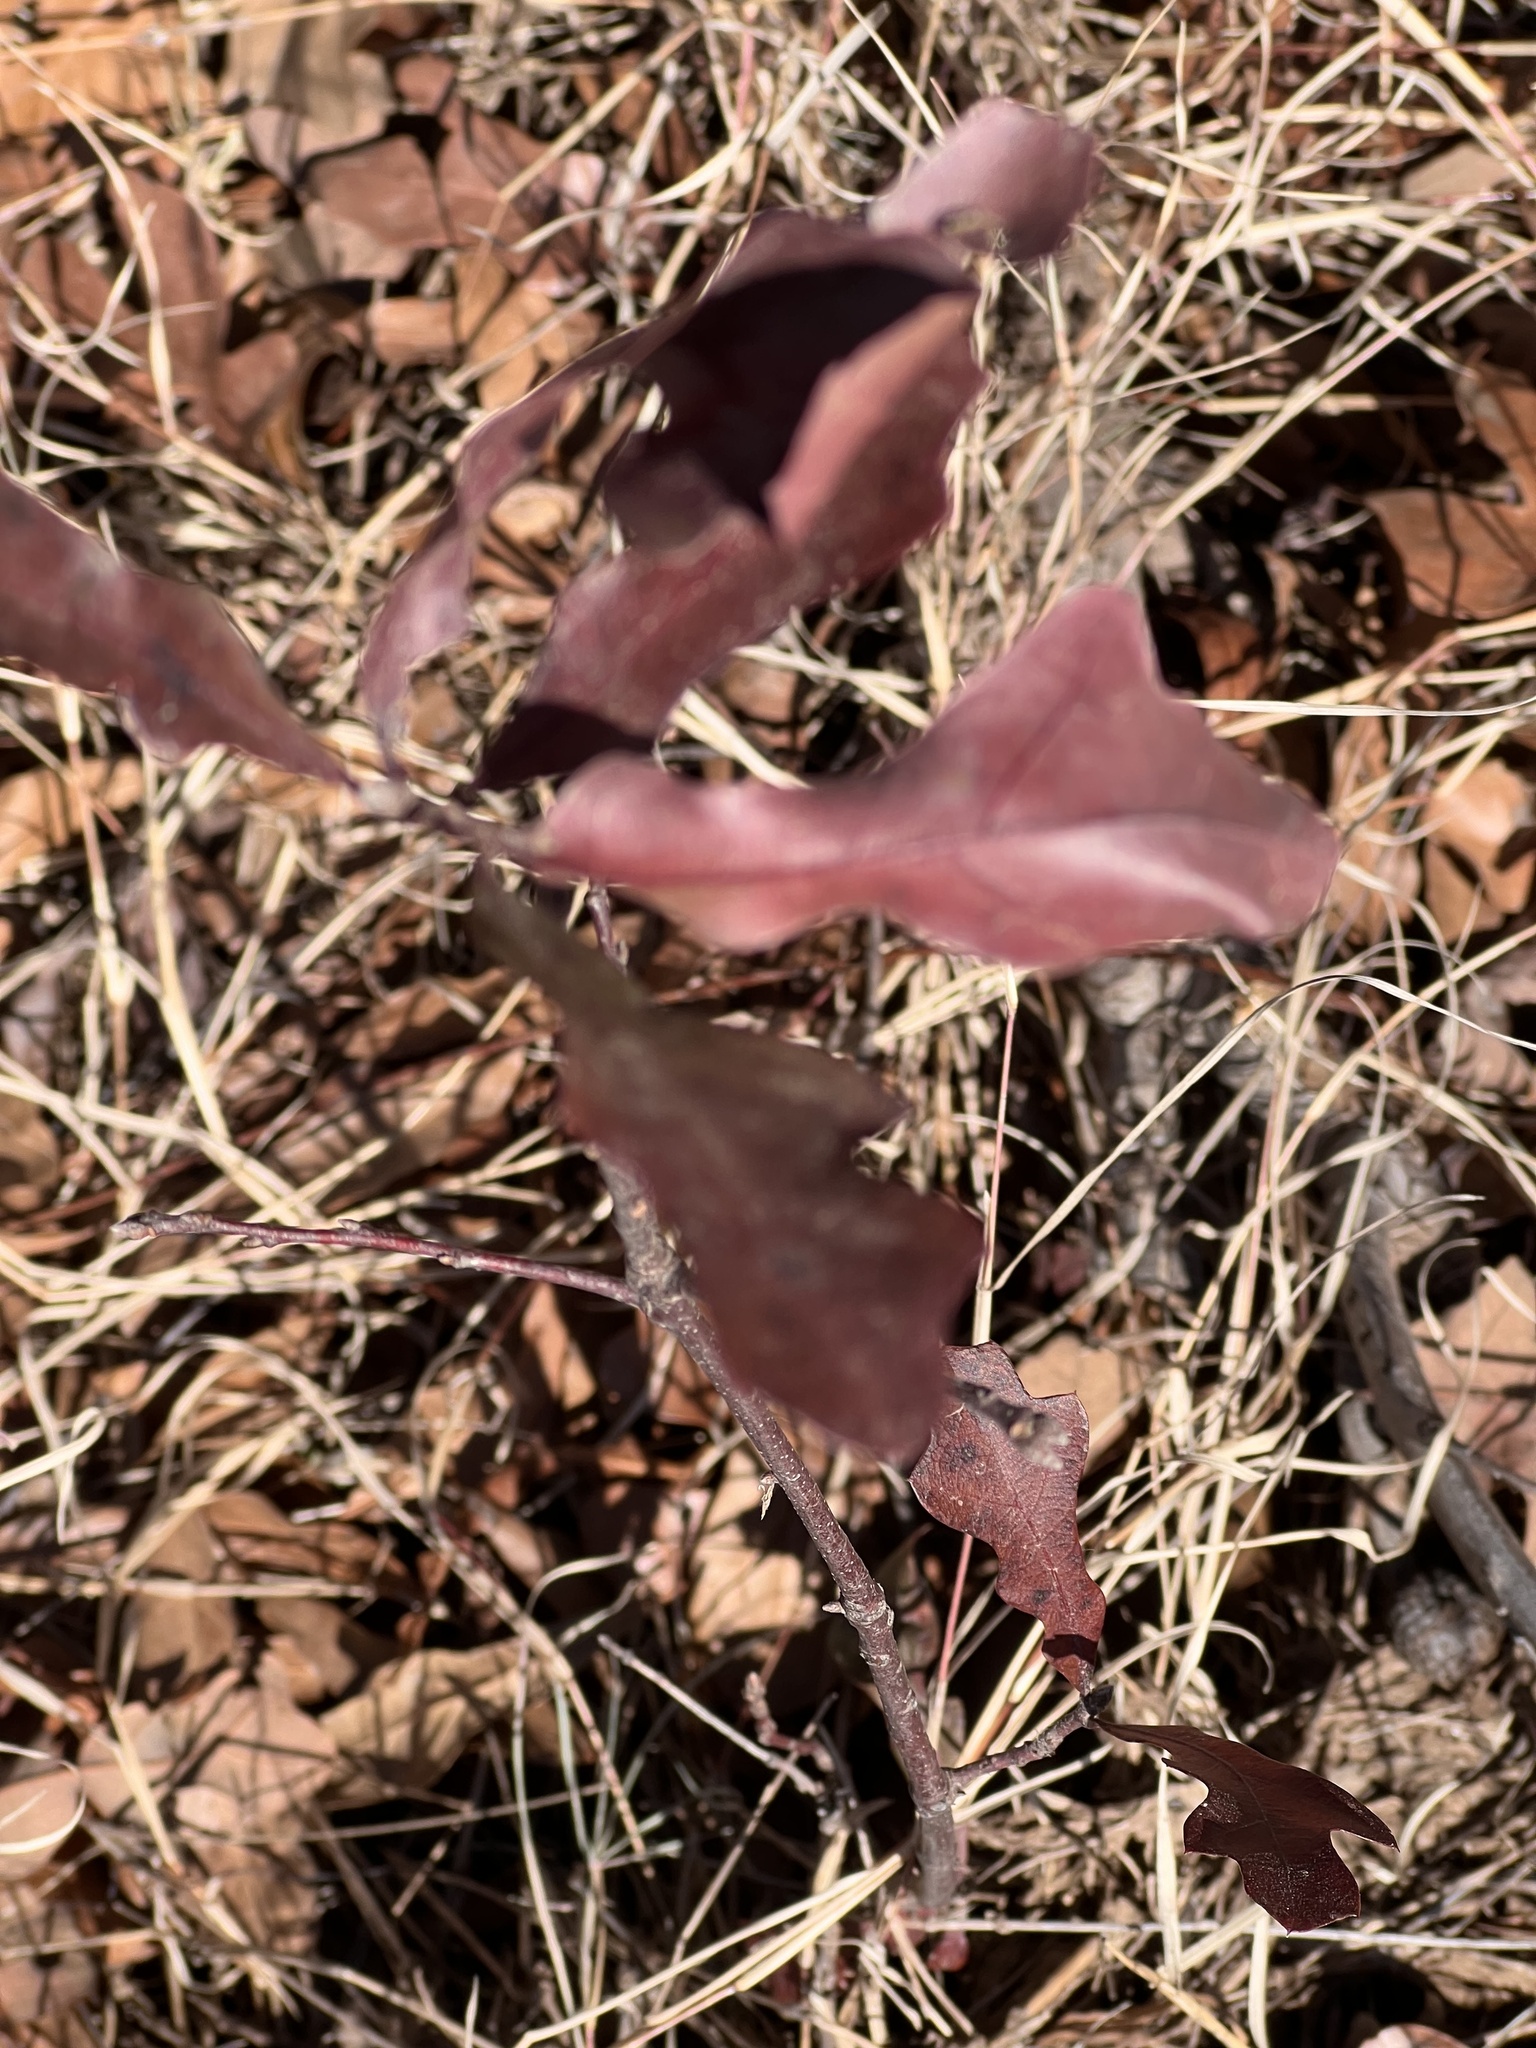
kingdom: Plantae
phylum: Tracheophyta
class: Magnoliopsida
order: Fagales
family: Fagaceae
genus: Quercus
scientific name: Quercus marilandica
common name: Blackjack oak
